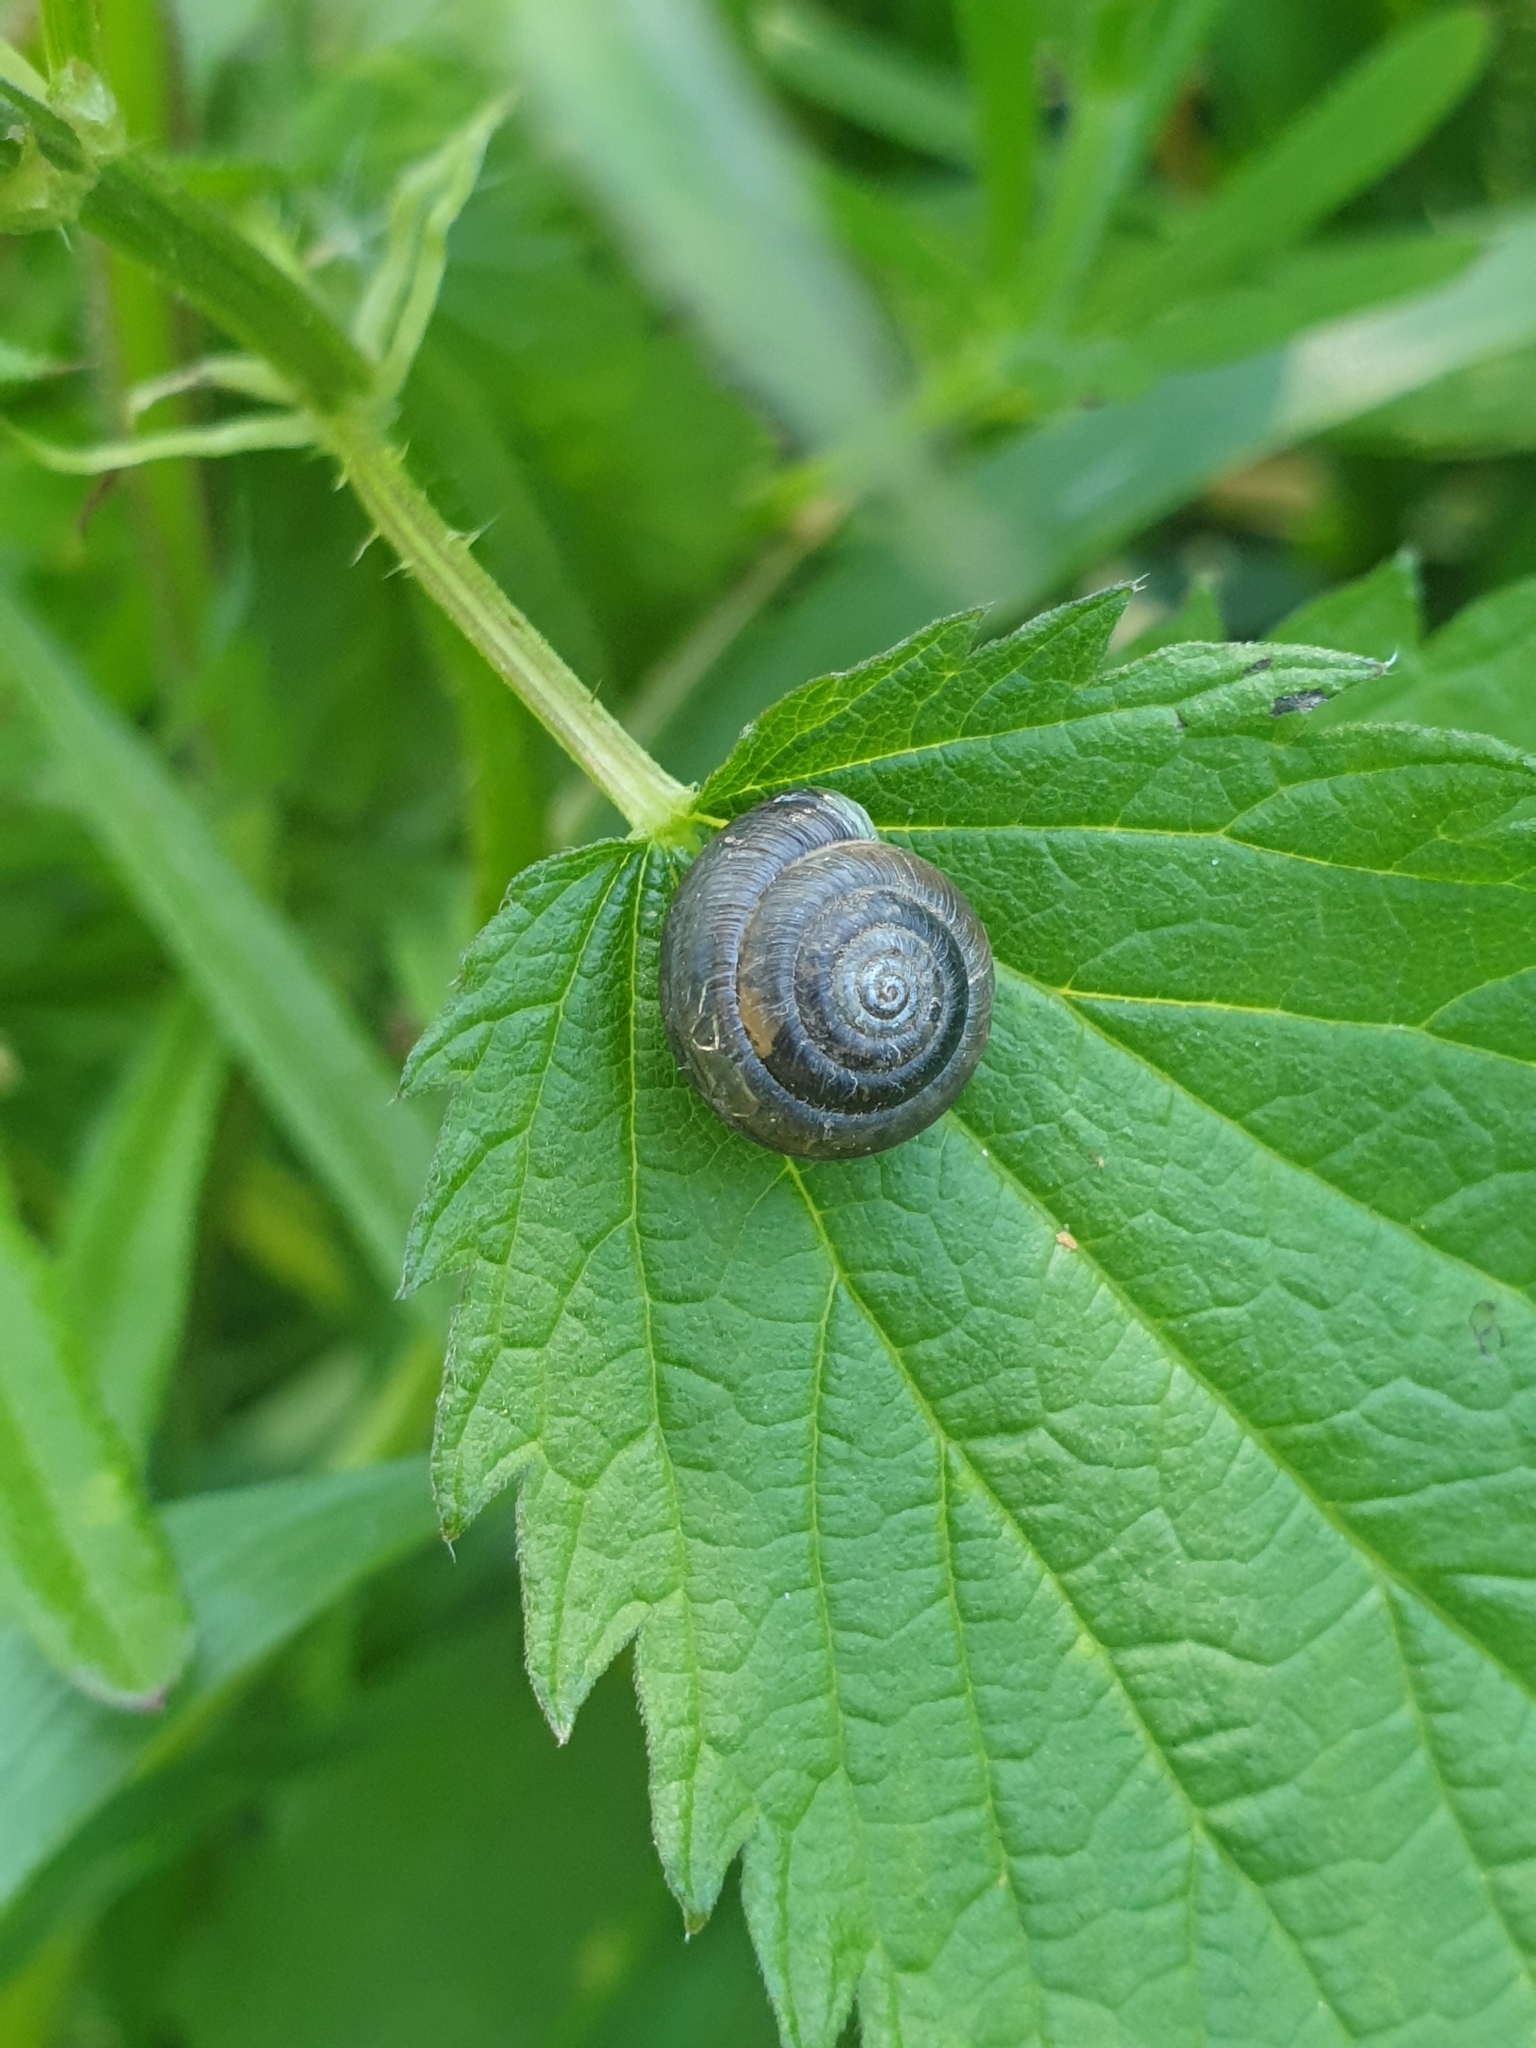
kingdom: Animalia
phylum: Mollusca
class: Gastropoda
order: Stylommatophora
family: Hygromiidae
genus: Trochulus
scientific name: Trochulus hispidus
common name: Hairy snail
